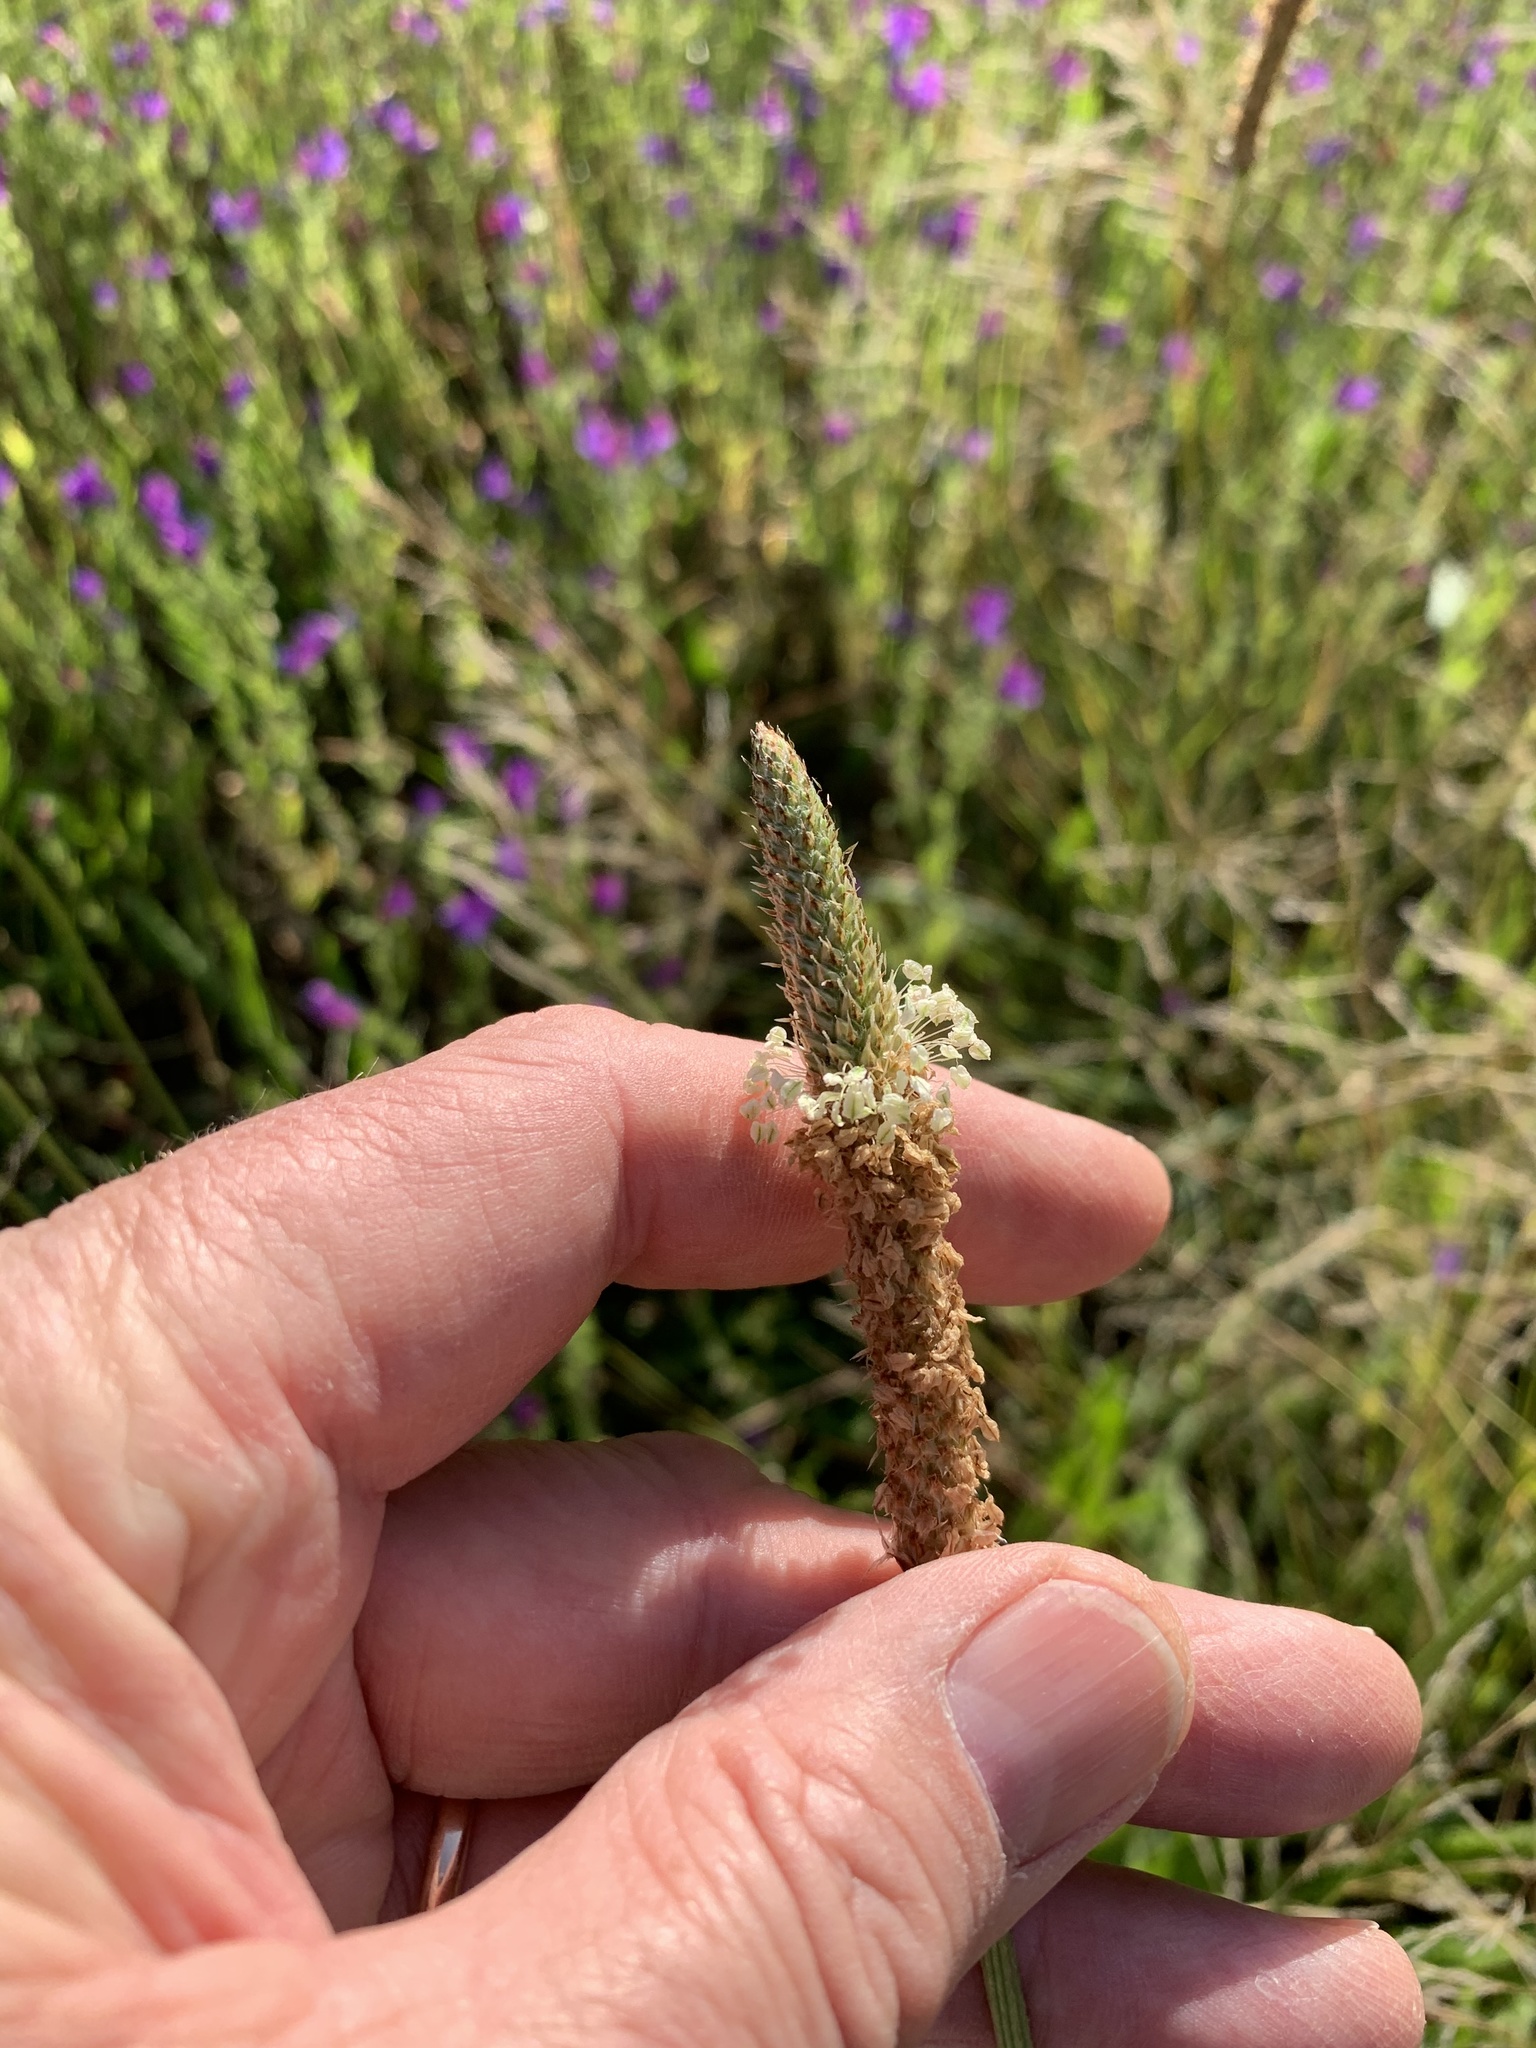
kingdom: Plantae
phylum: Tracheophyta
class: Magnoliopsida
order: Lamiales
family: Plantaginaceae
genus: Plantago
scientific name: Plantago lanceolata
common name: Ribwort plantain
